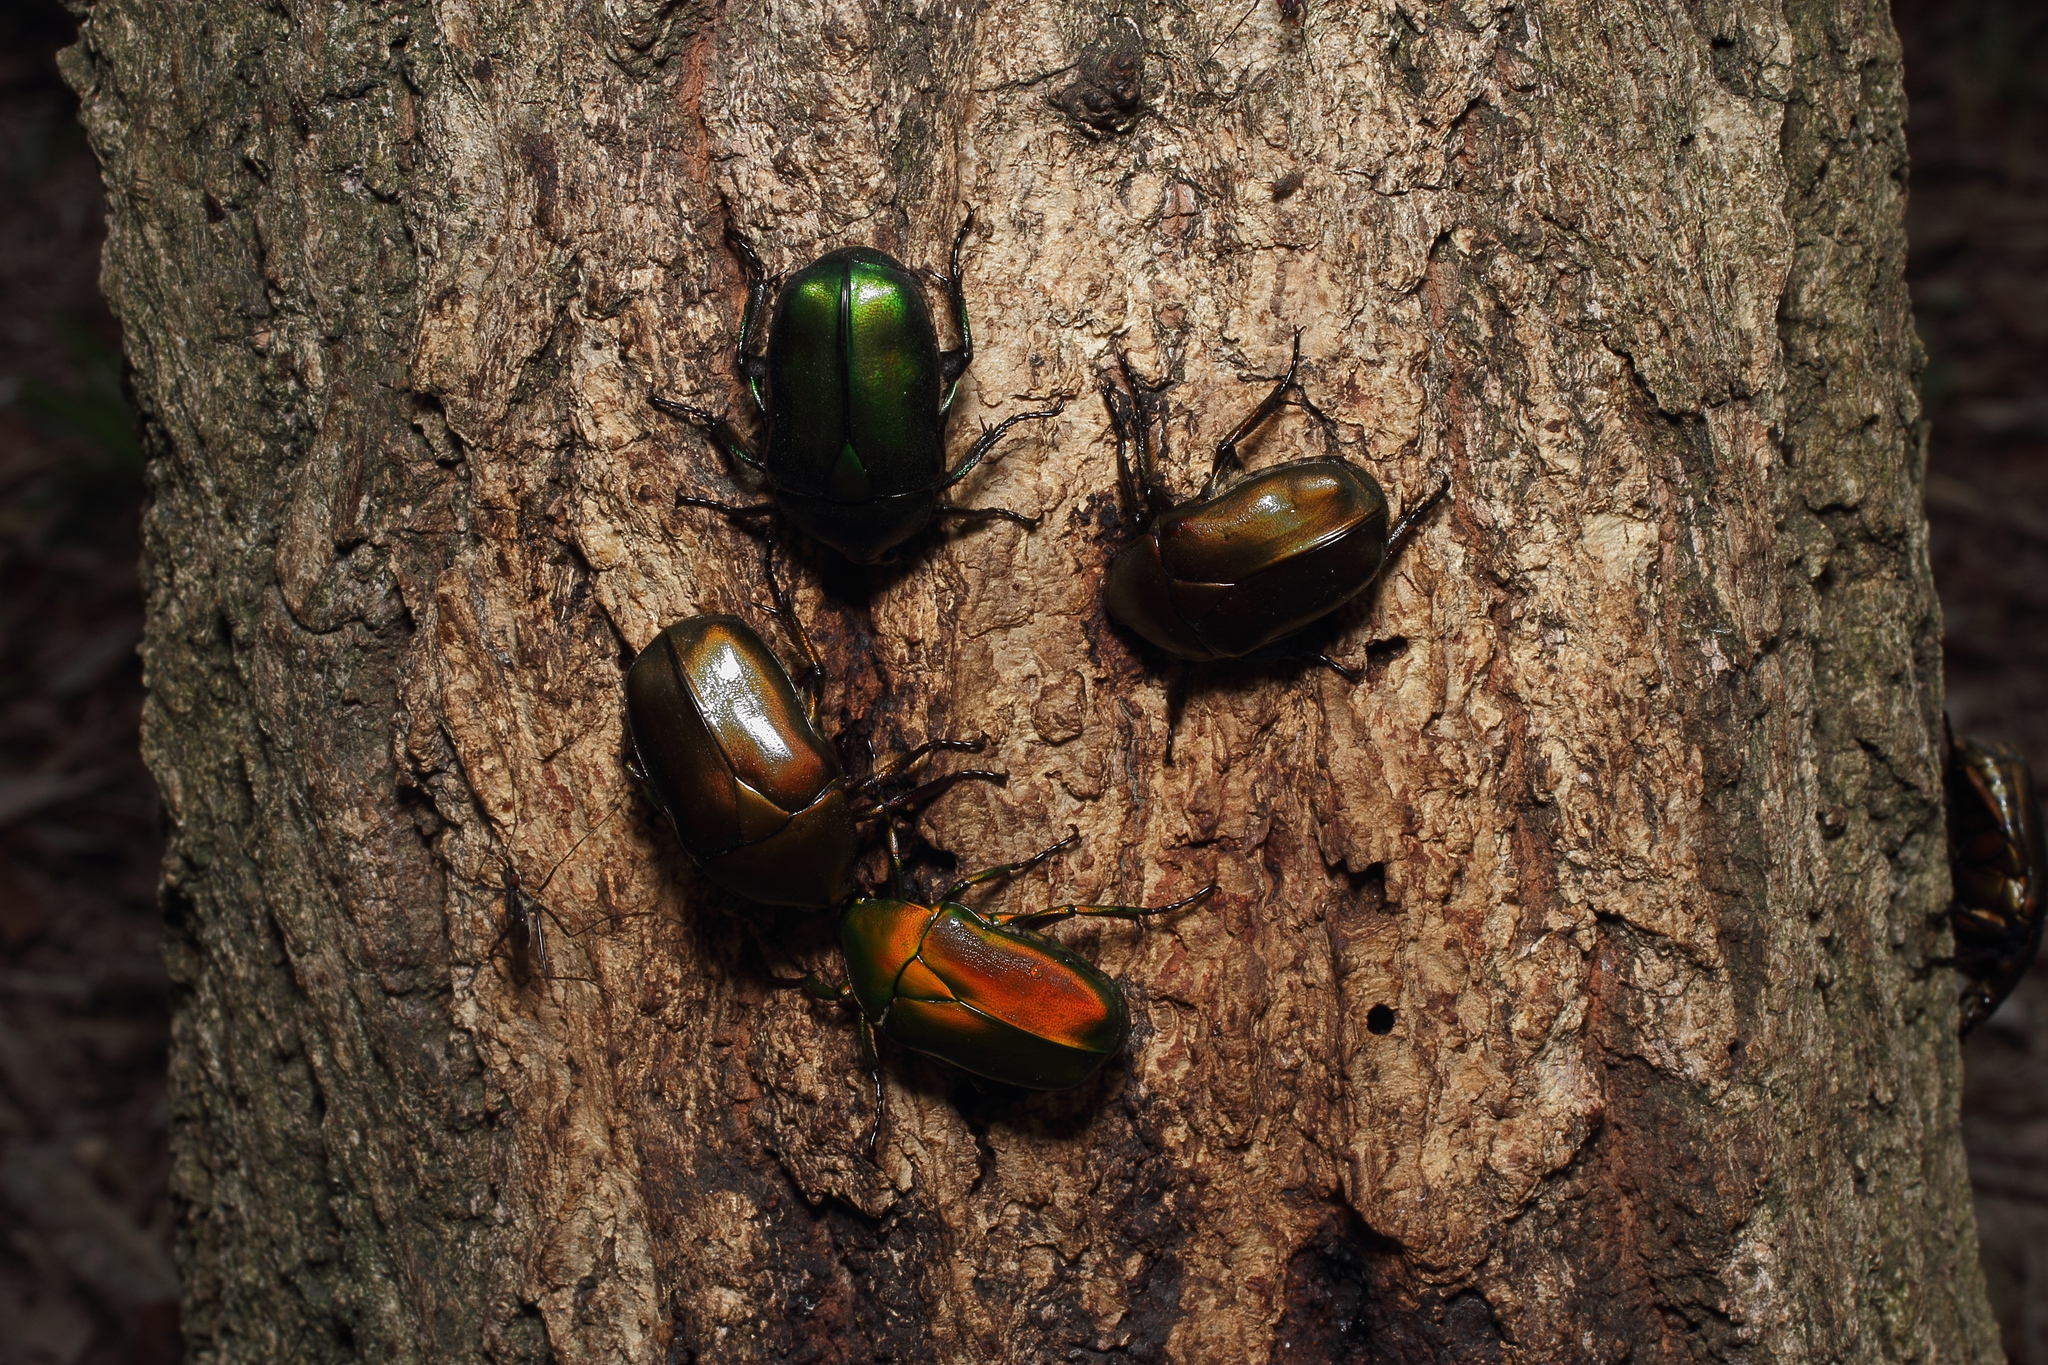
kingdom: Animalia
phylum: Arthropoda
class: Insecta
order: Coleoptera
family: Scarabaeidae
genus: Pseudotorynorrhina
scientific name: Pseudotorynorrhina japonica
